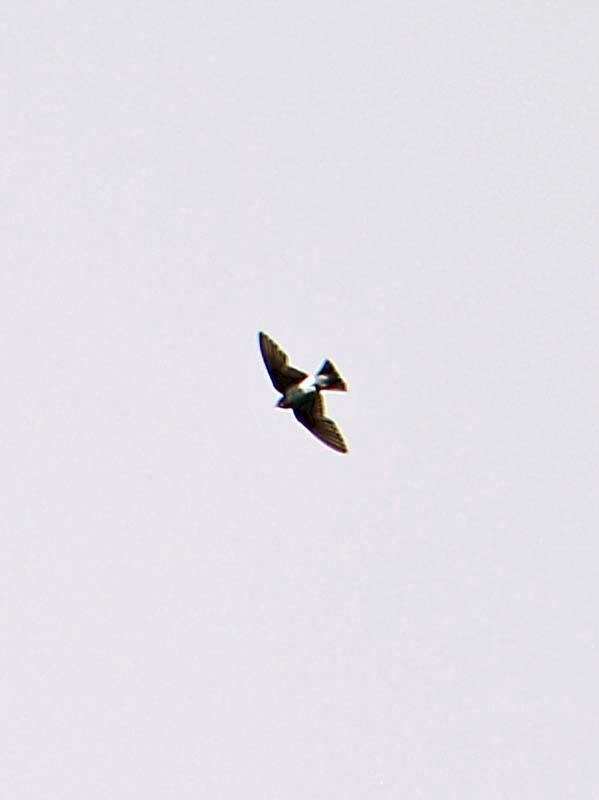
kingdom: Animalia
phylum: Chordata
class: Aves
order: Passeriformes
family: Hirundinidae
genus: Tachycineta
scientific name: Tachycineta thalassina
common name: Violet-green swallow
